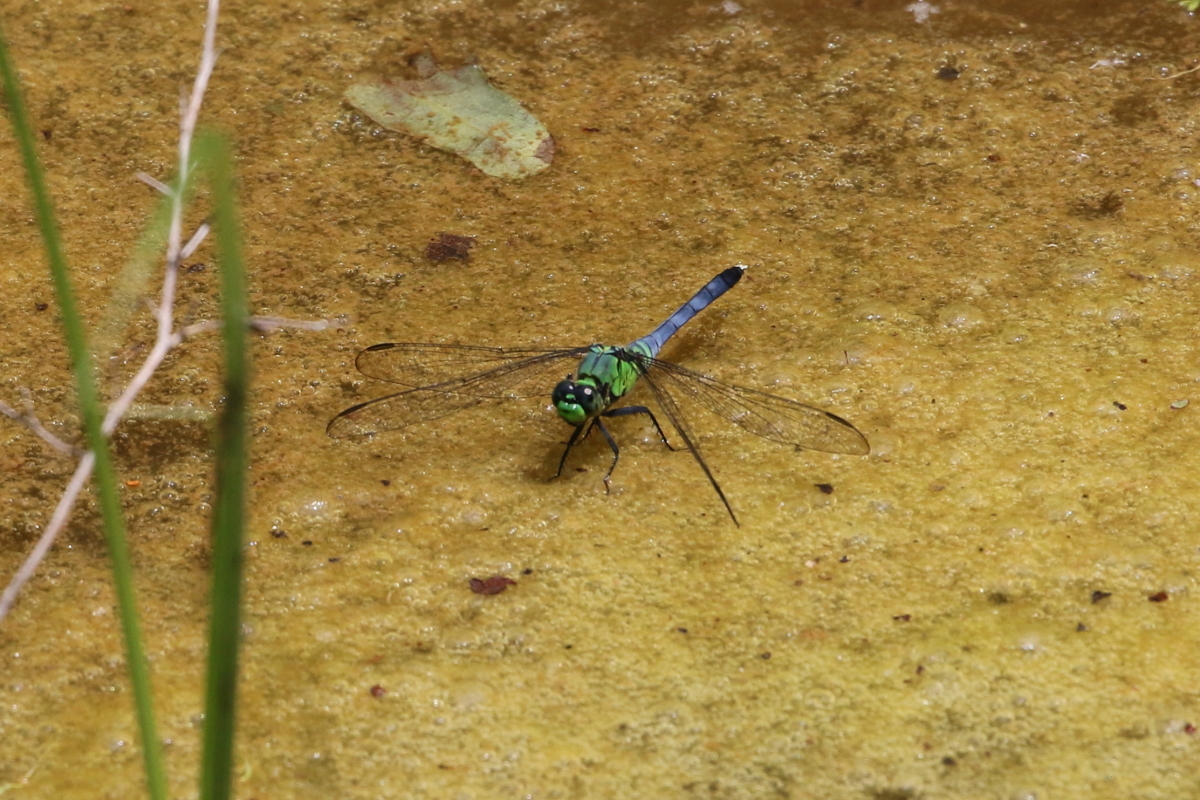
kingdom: Animalia
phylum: Arthropoda
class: Insecta
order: Odonata
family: Libellulidae
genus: Erythemis
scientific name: Erythemis simplicicollis
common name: Eastern pondhawk
